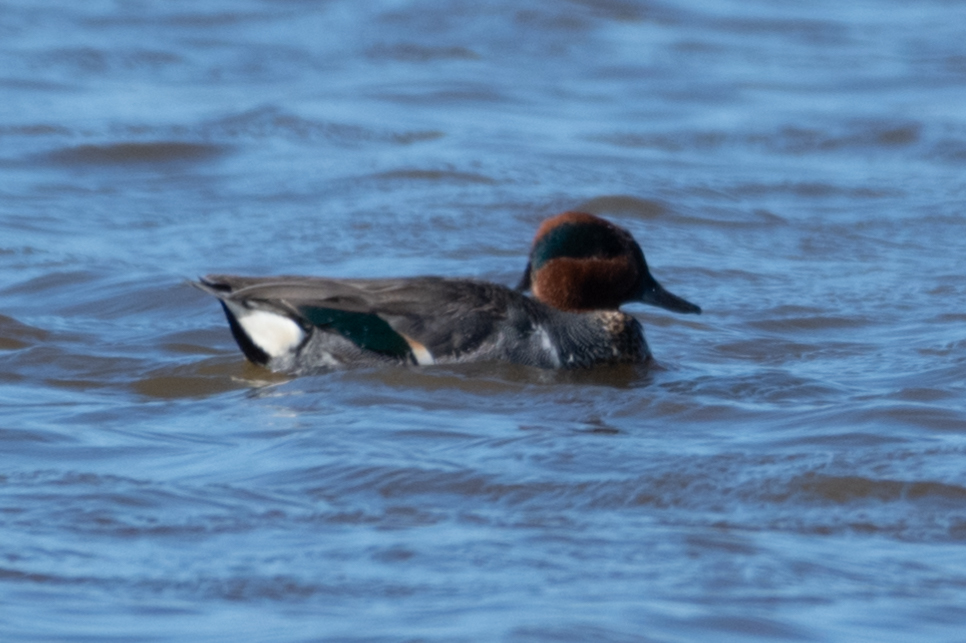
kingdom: Animalia
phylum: Chordata
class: Aves
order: Anseriformes
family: Anatidae
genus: Anas
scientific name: Anas crecca
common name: Eurasian teal
